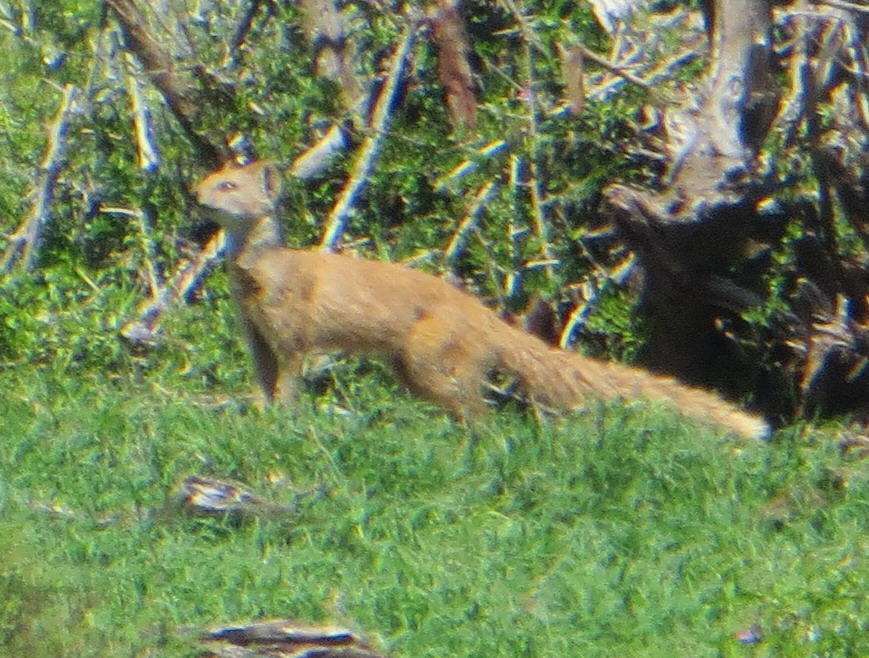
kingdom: Animalia
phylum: Chordata
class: Mammalia
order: Carnivora
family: Herpestidae
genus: Cynictis
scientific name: Cynictis penicillata
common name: Yellow mongoose
